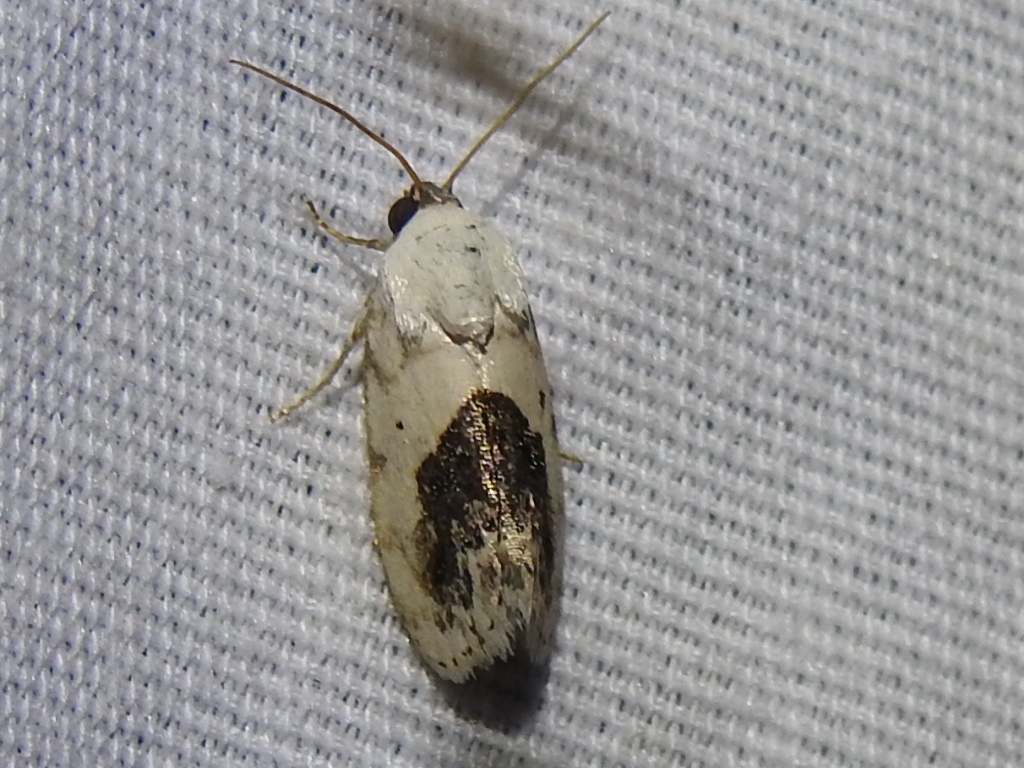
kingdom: Animalia
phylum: Arthropoda
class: Insecta
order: Lepidoptera
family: Noctuidae
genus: Acontia
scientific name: Acontia erastrioides
